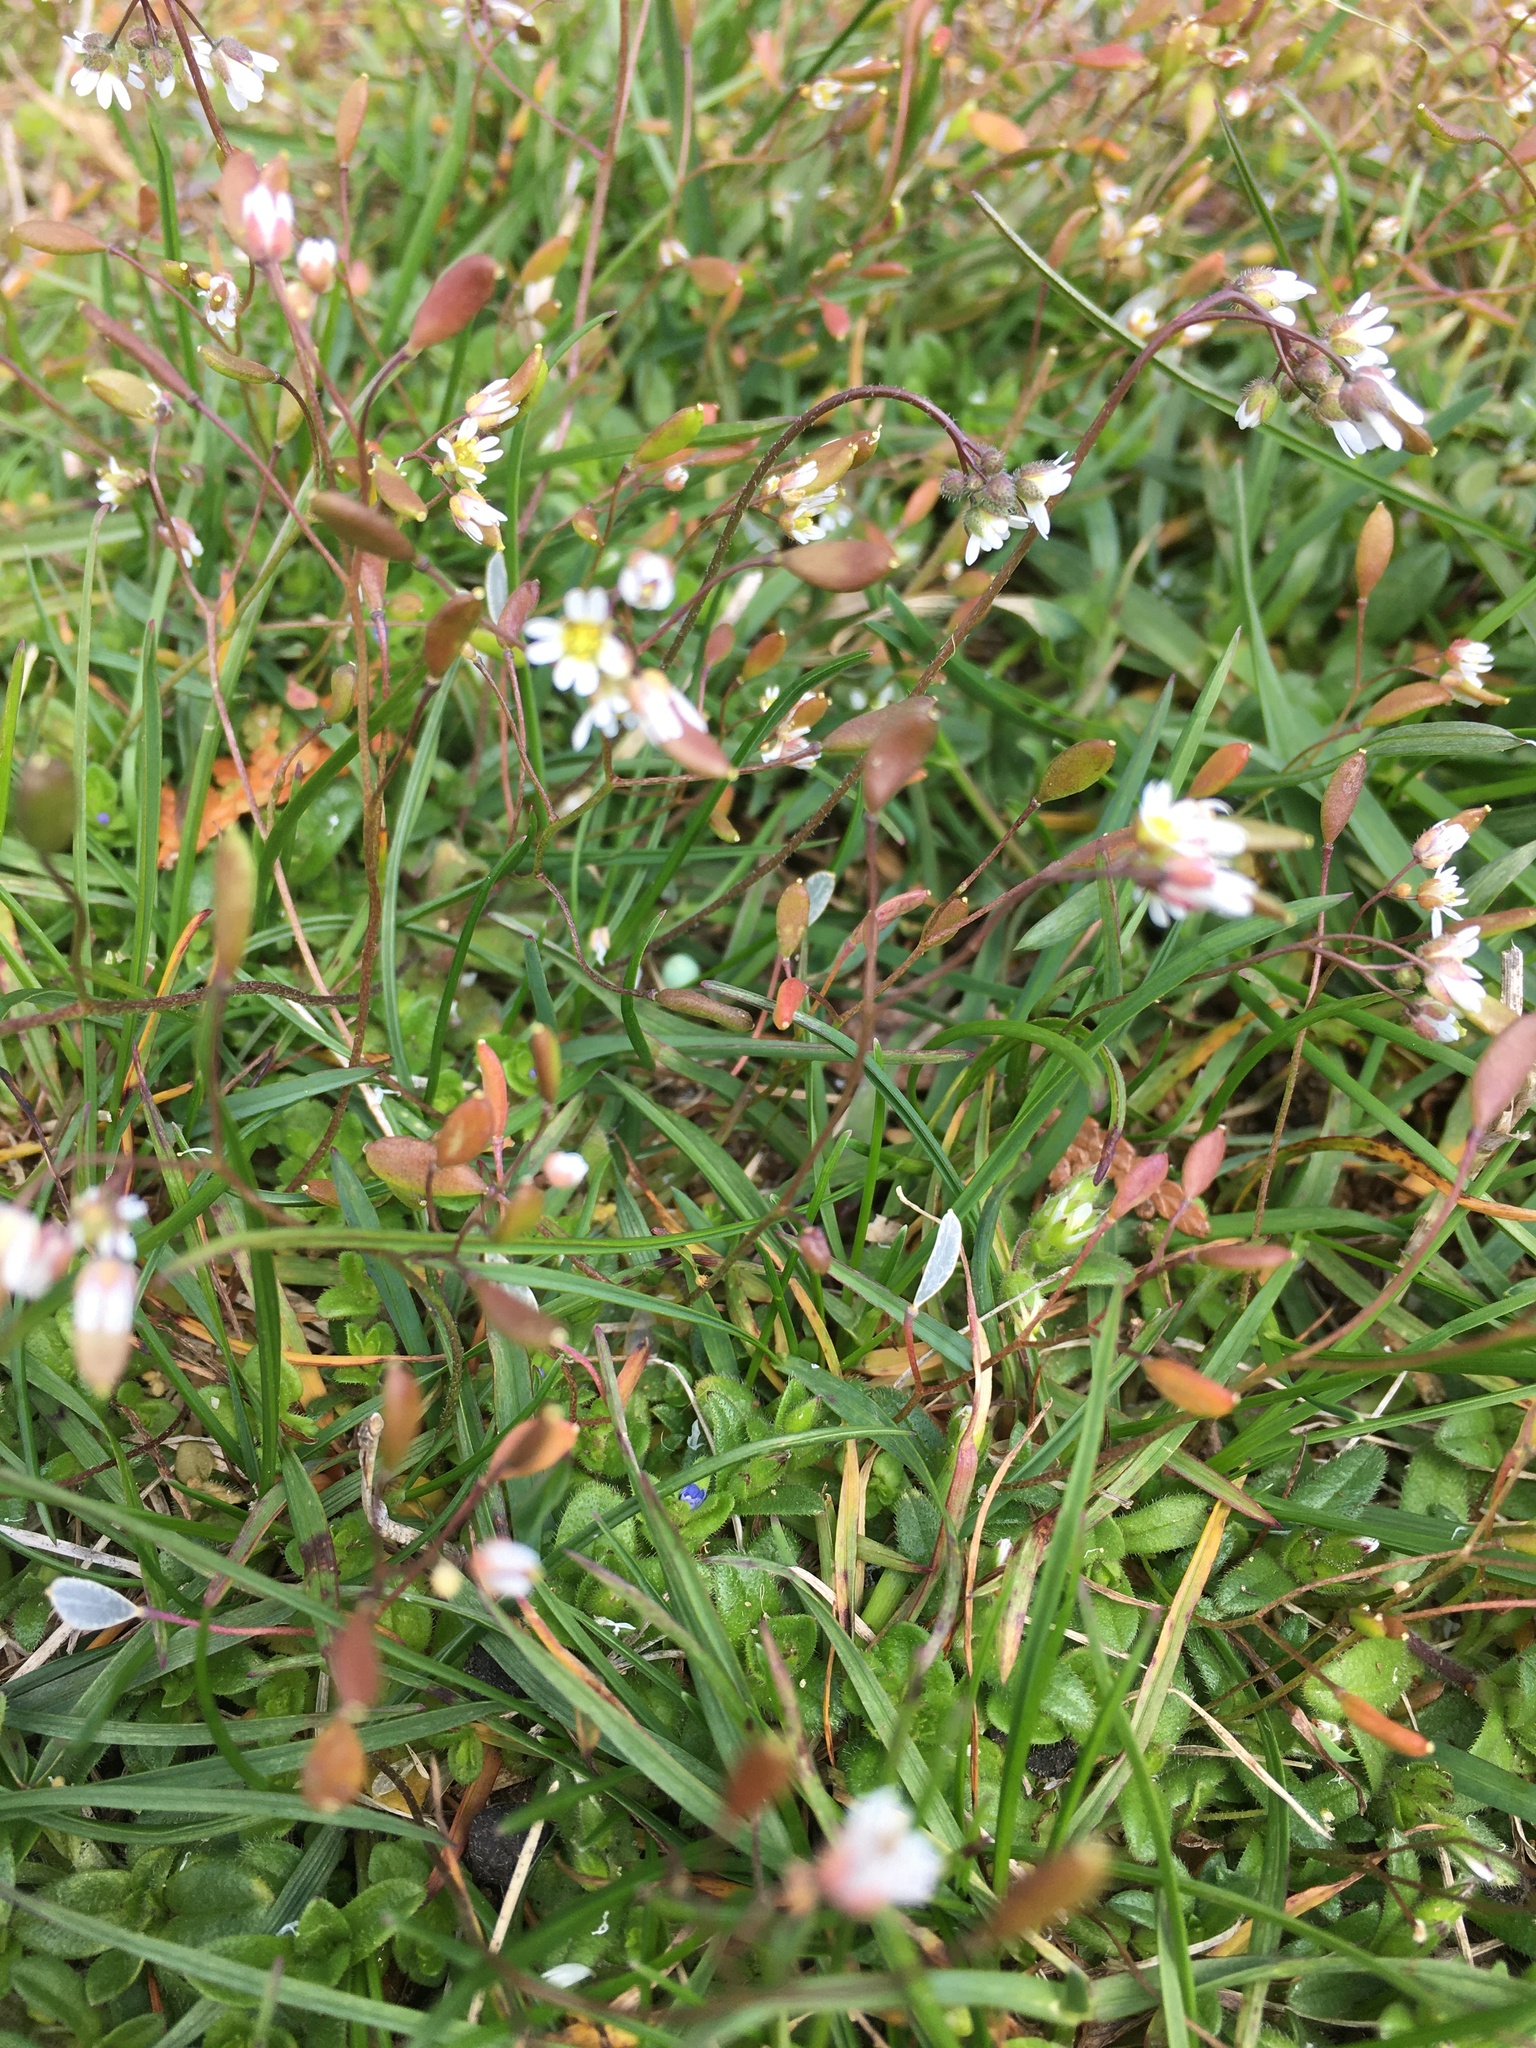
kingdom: Plantae
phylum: Tracheophyta
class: Magnoliopsida
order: Brassicales
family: Brassicaceae
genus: Draba
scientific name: Draba verna
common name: Spring draba
